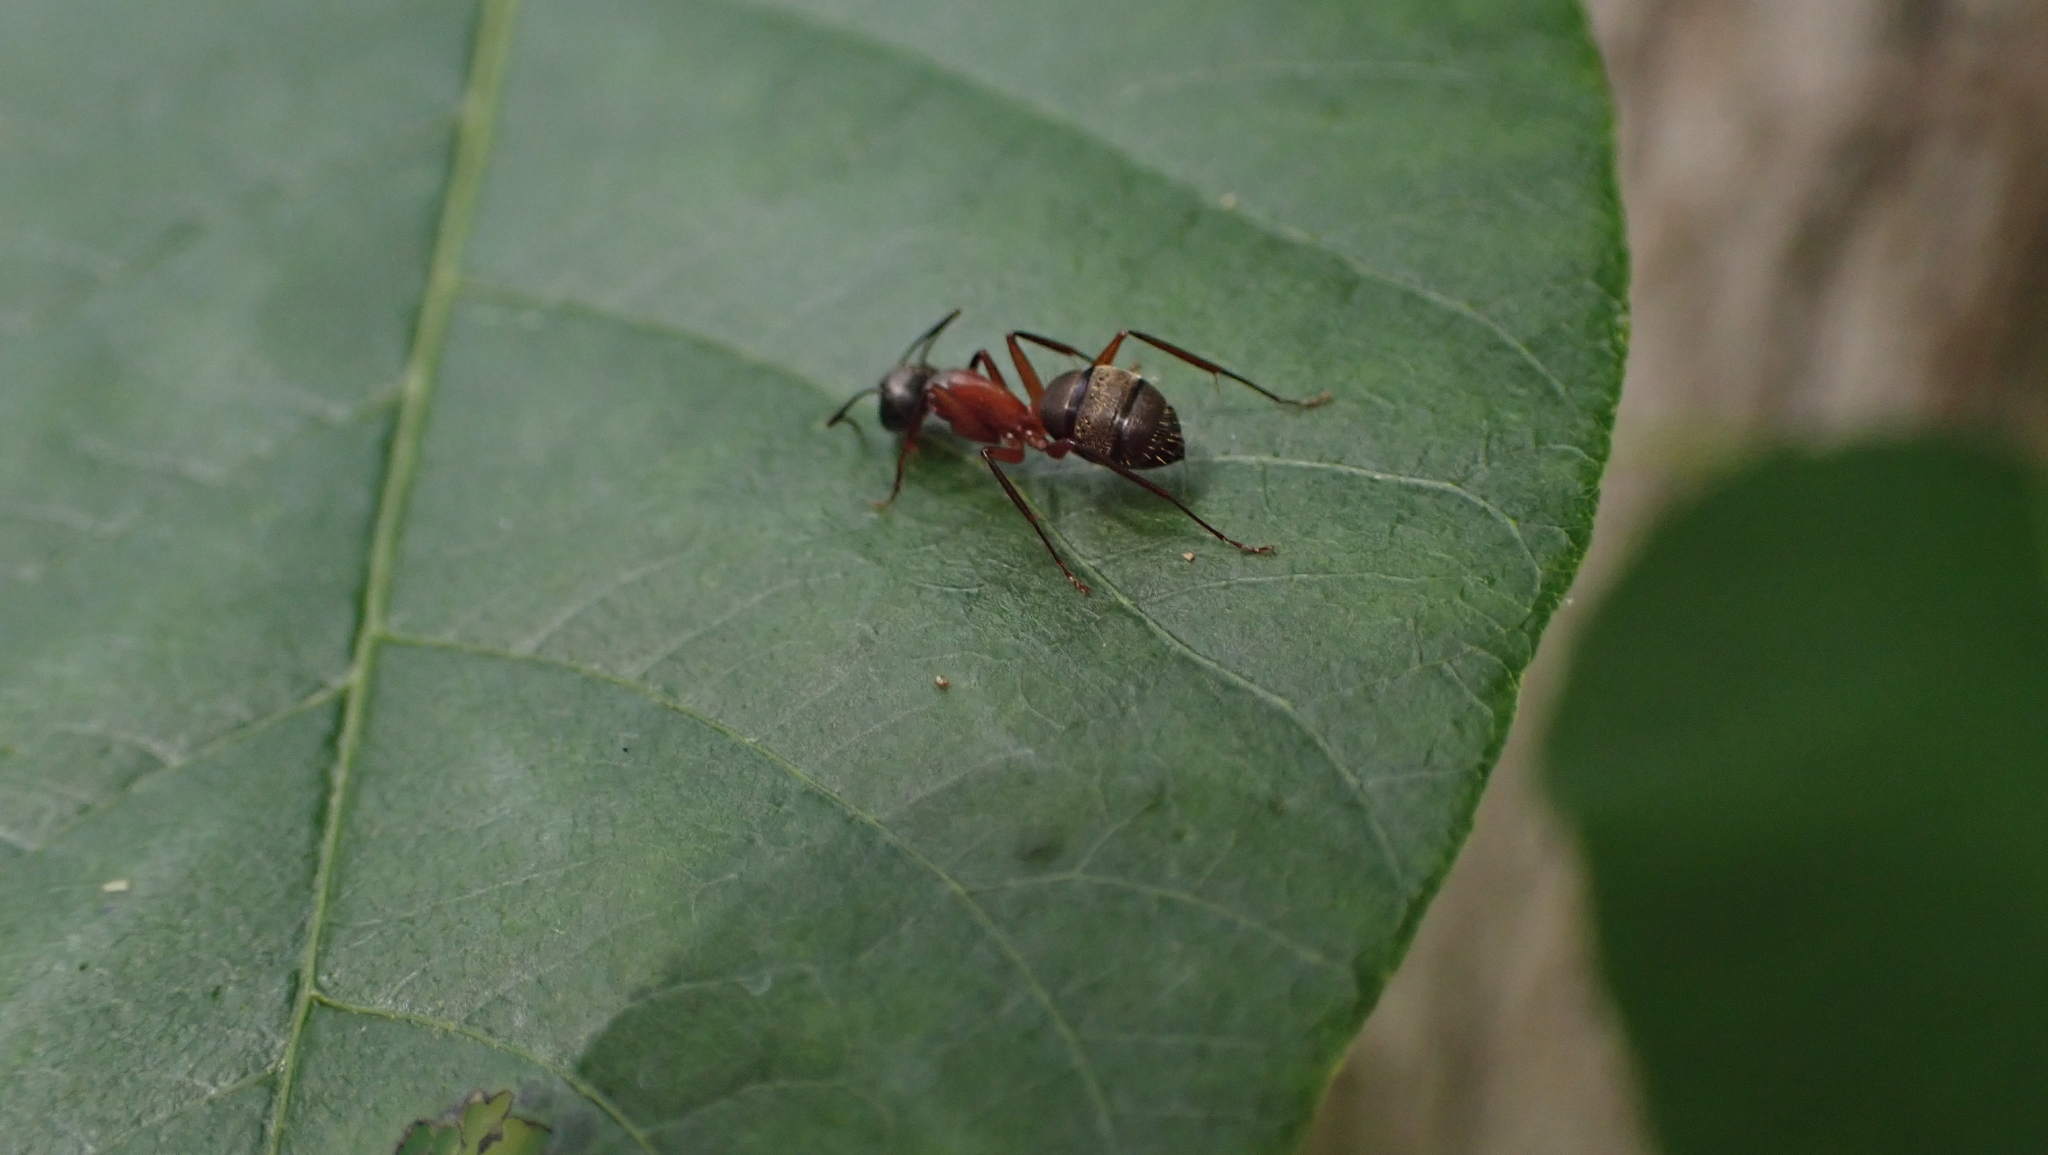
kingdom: Animalia
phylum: Arthropoda
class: Insecta
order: Hymenoptera
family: Formicidae
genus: Camponotus
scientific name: Camponotus chromaiodes
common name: Red carpenter ant
